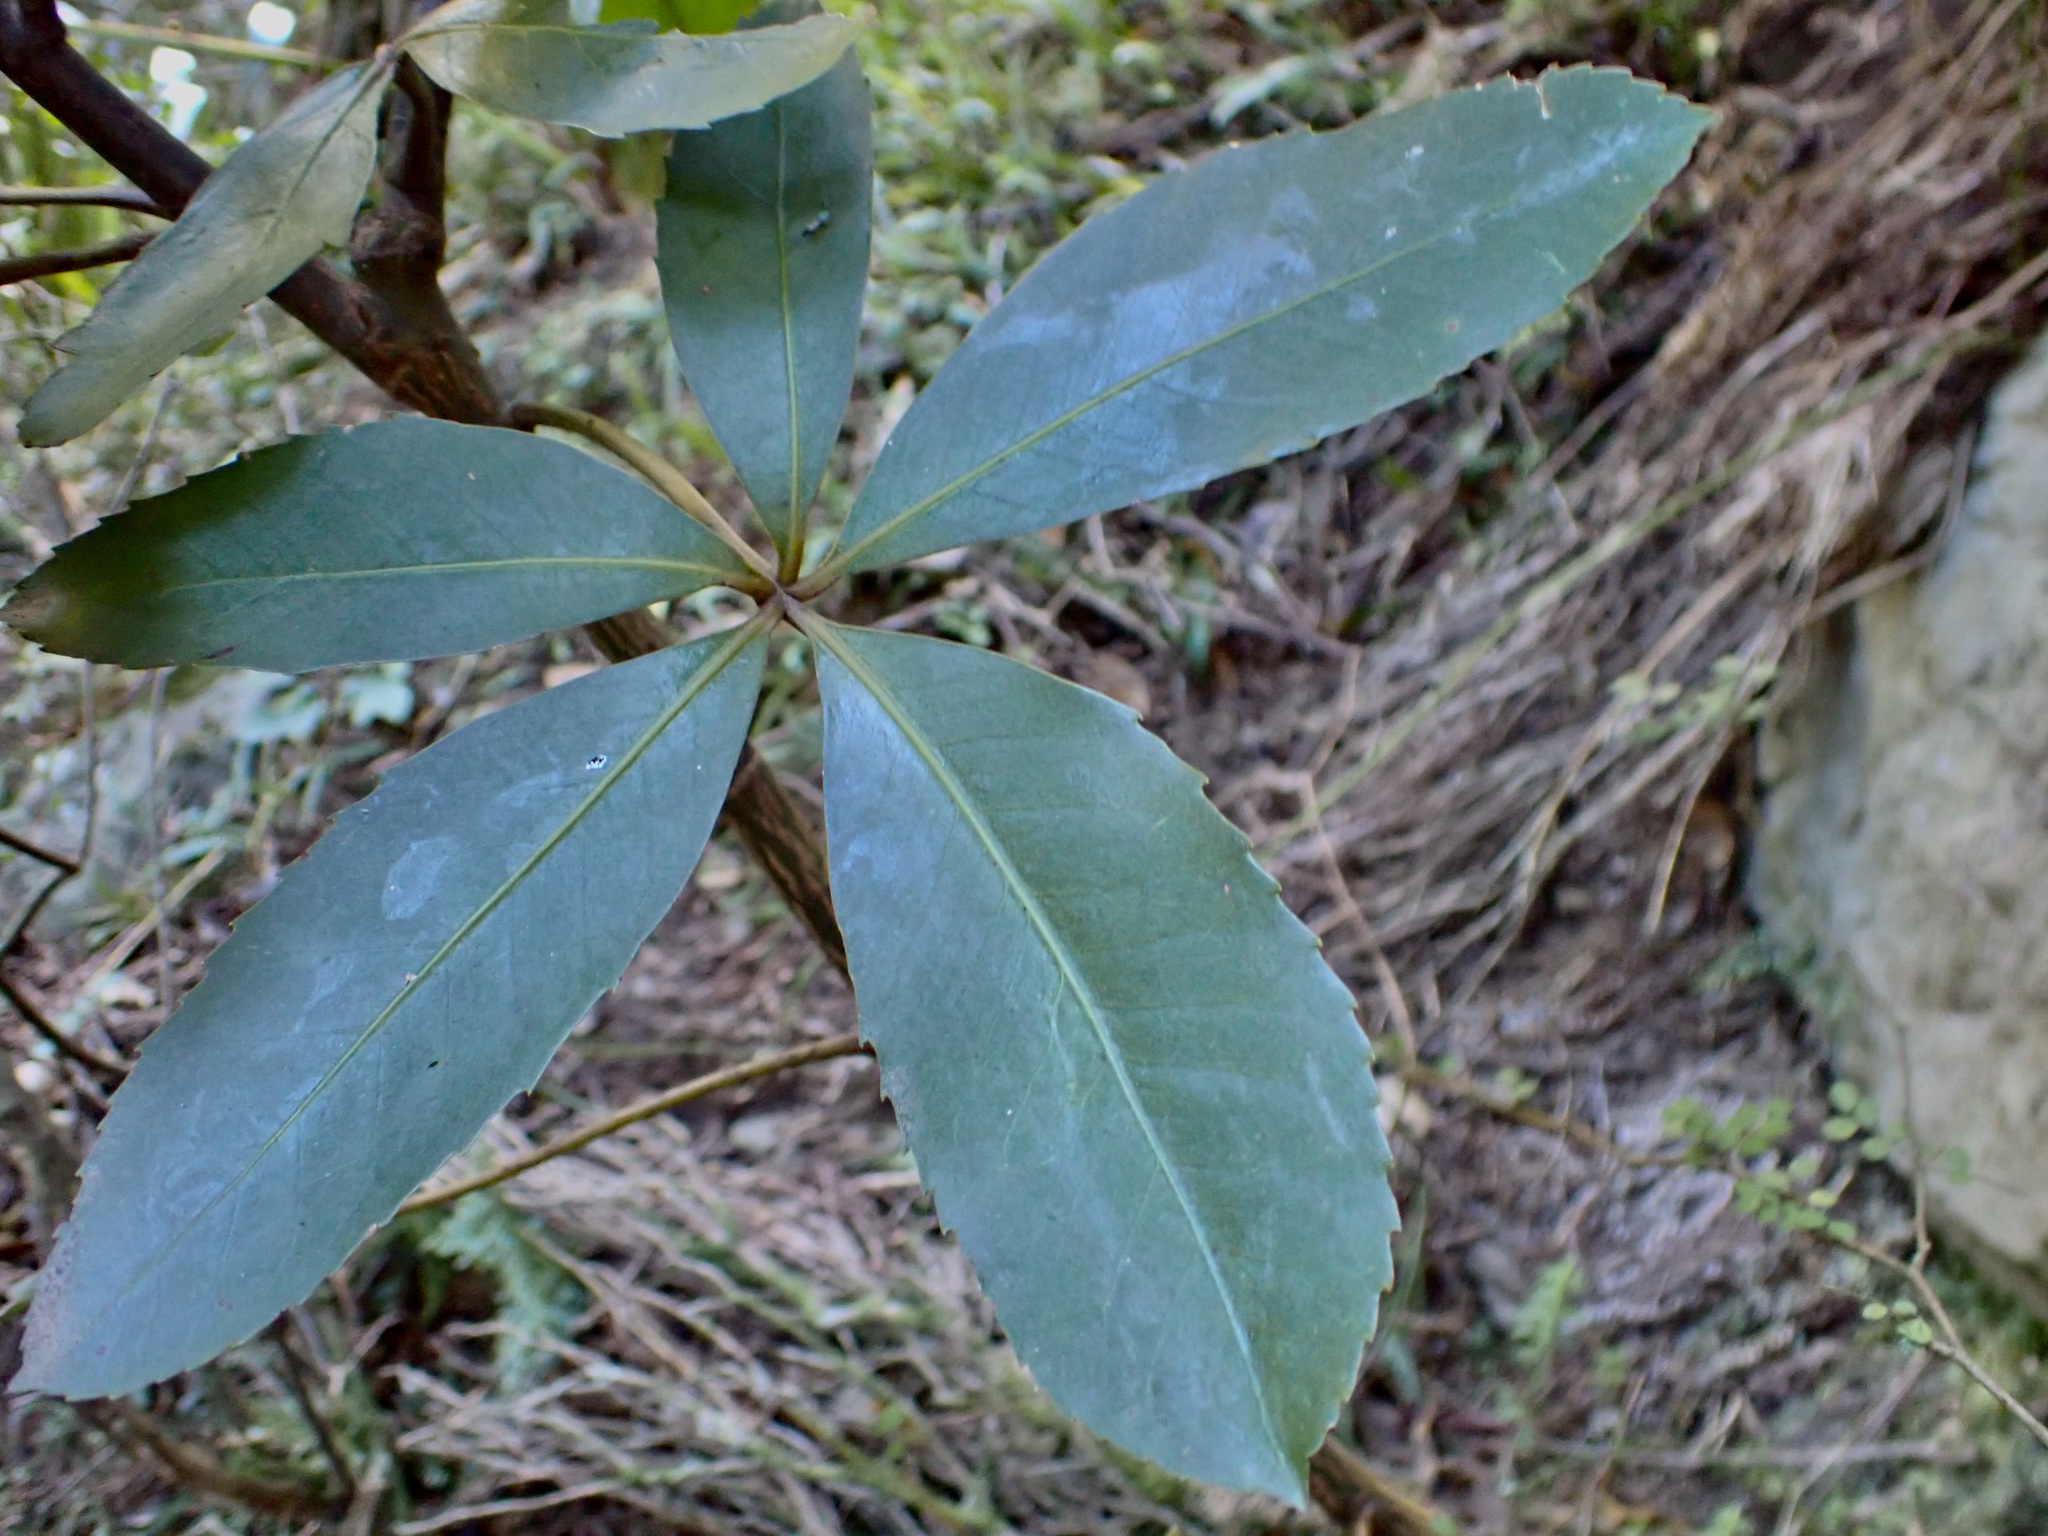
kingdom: Plantae
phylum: Tracheophyta
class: Magnoliopsida
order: Apiales
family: Araliaceae
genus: Neopanax
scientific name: Neopanax colensoi
